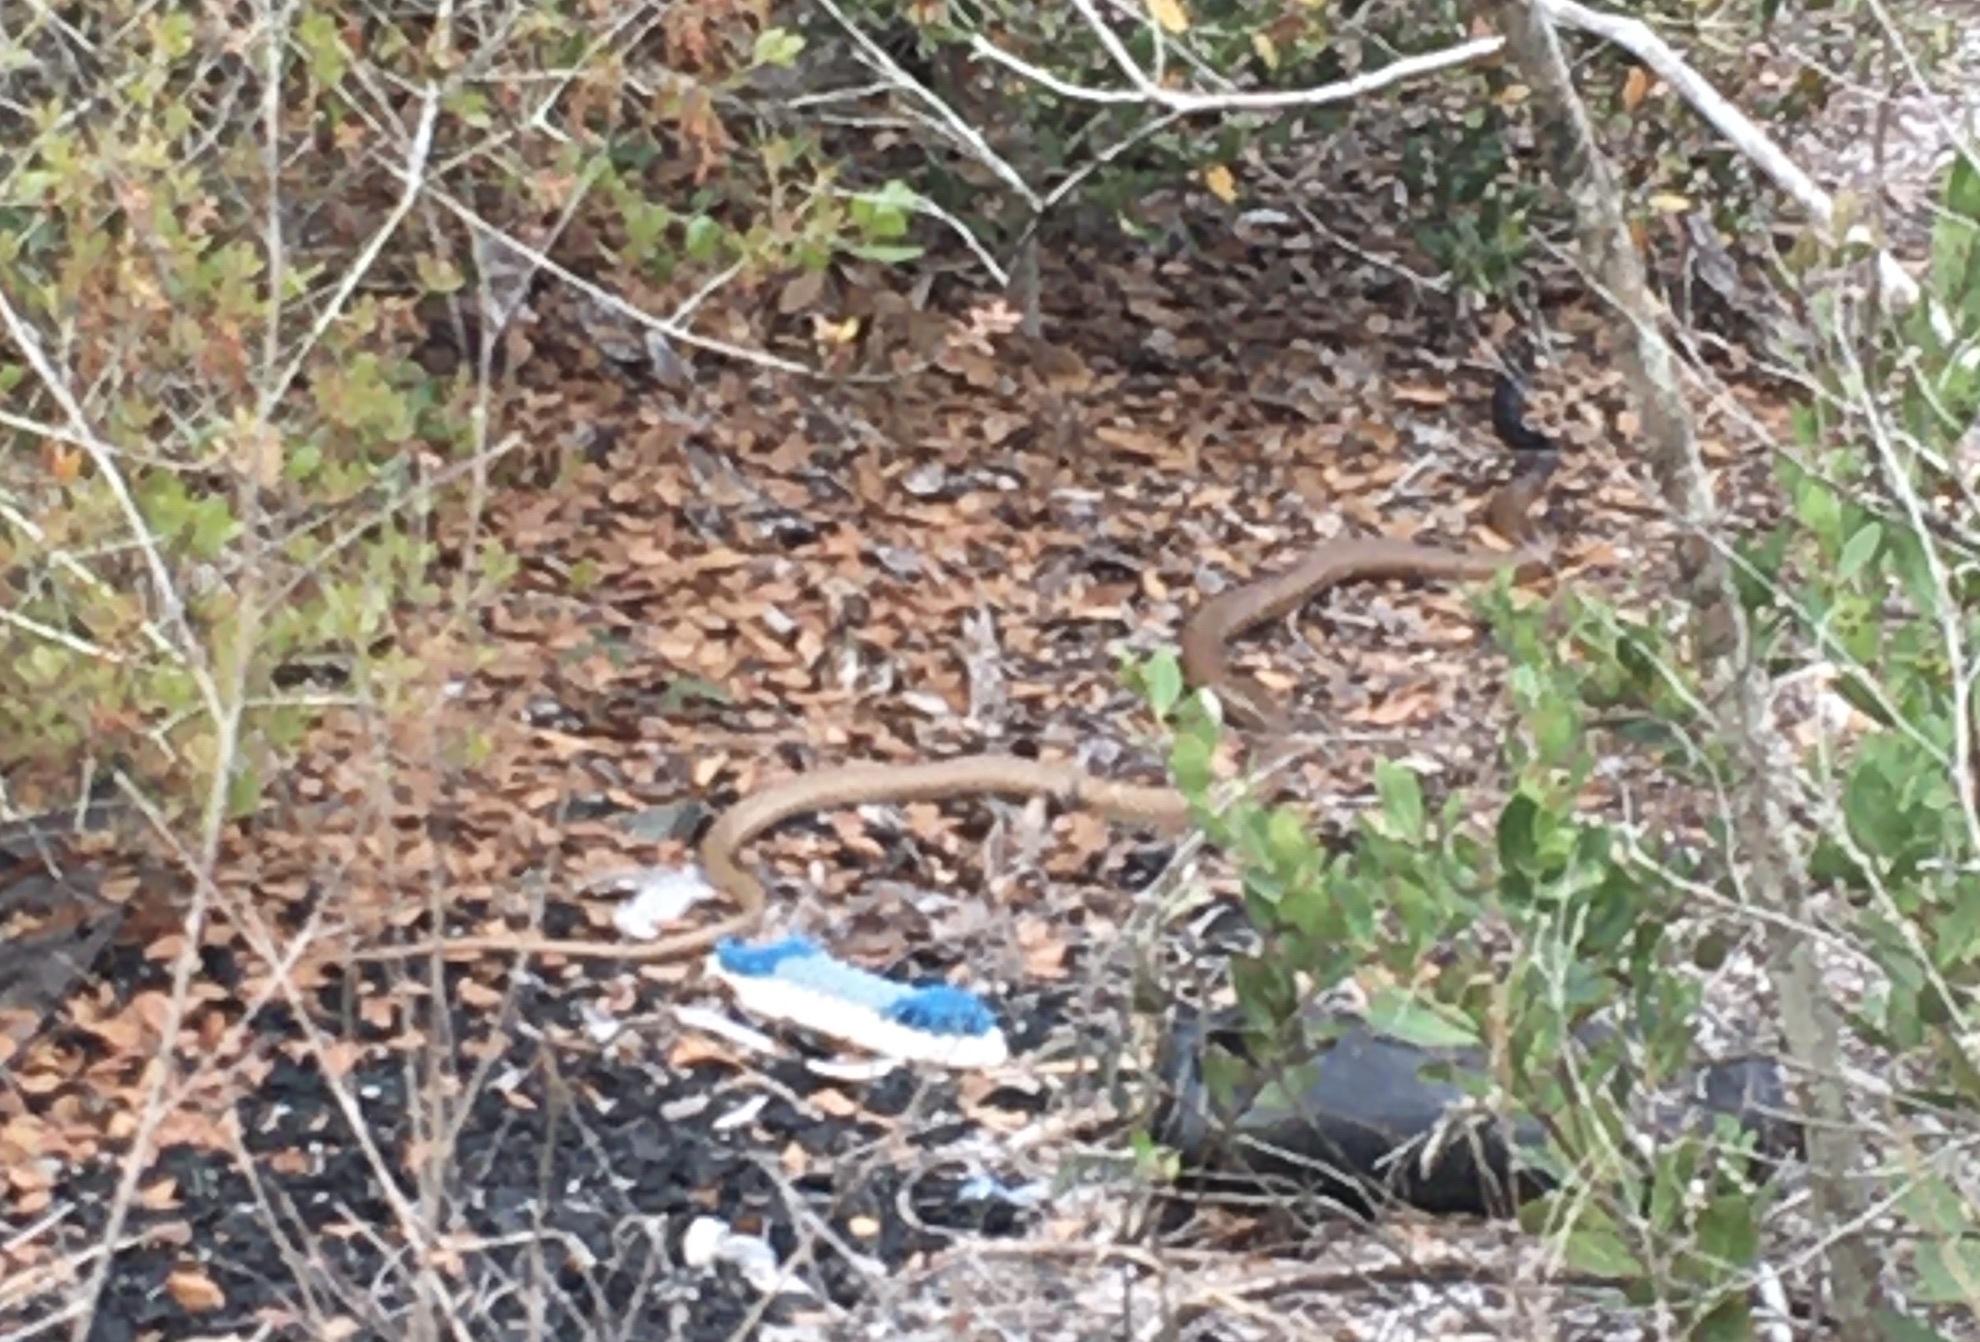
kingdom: Animalia
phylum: Chordata
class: Squamata
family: Colubridae
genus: Masticophis
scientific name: Masticophis flagellum
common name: Coachwhip
